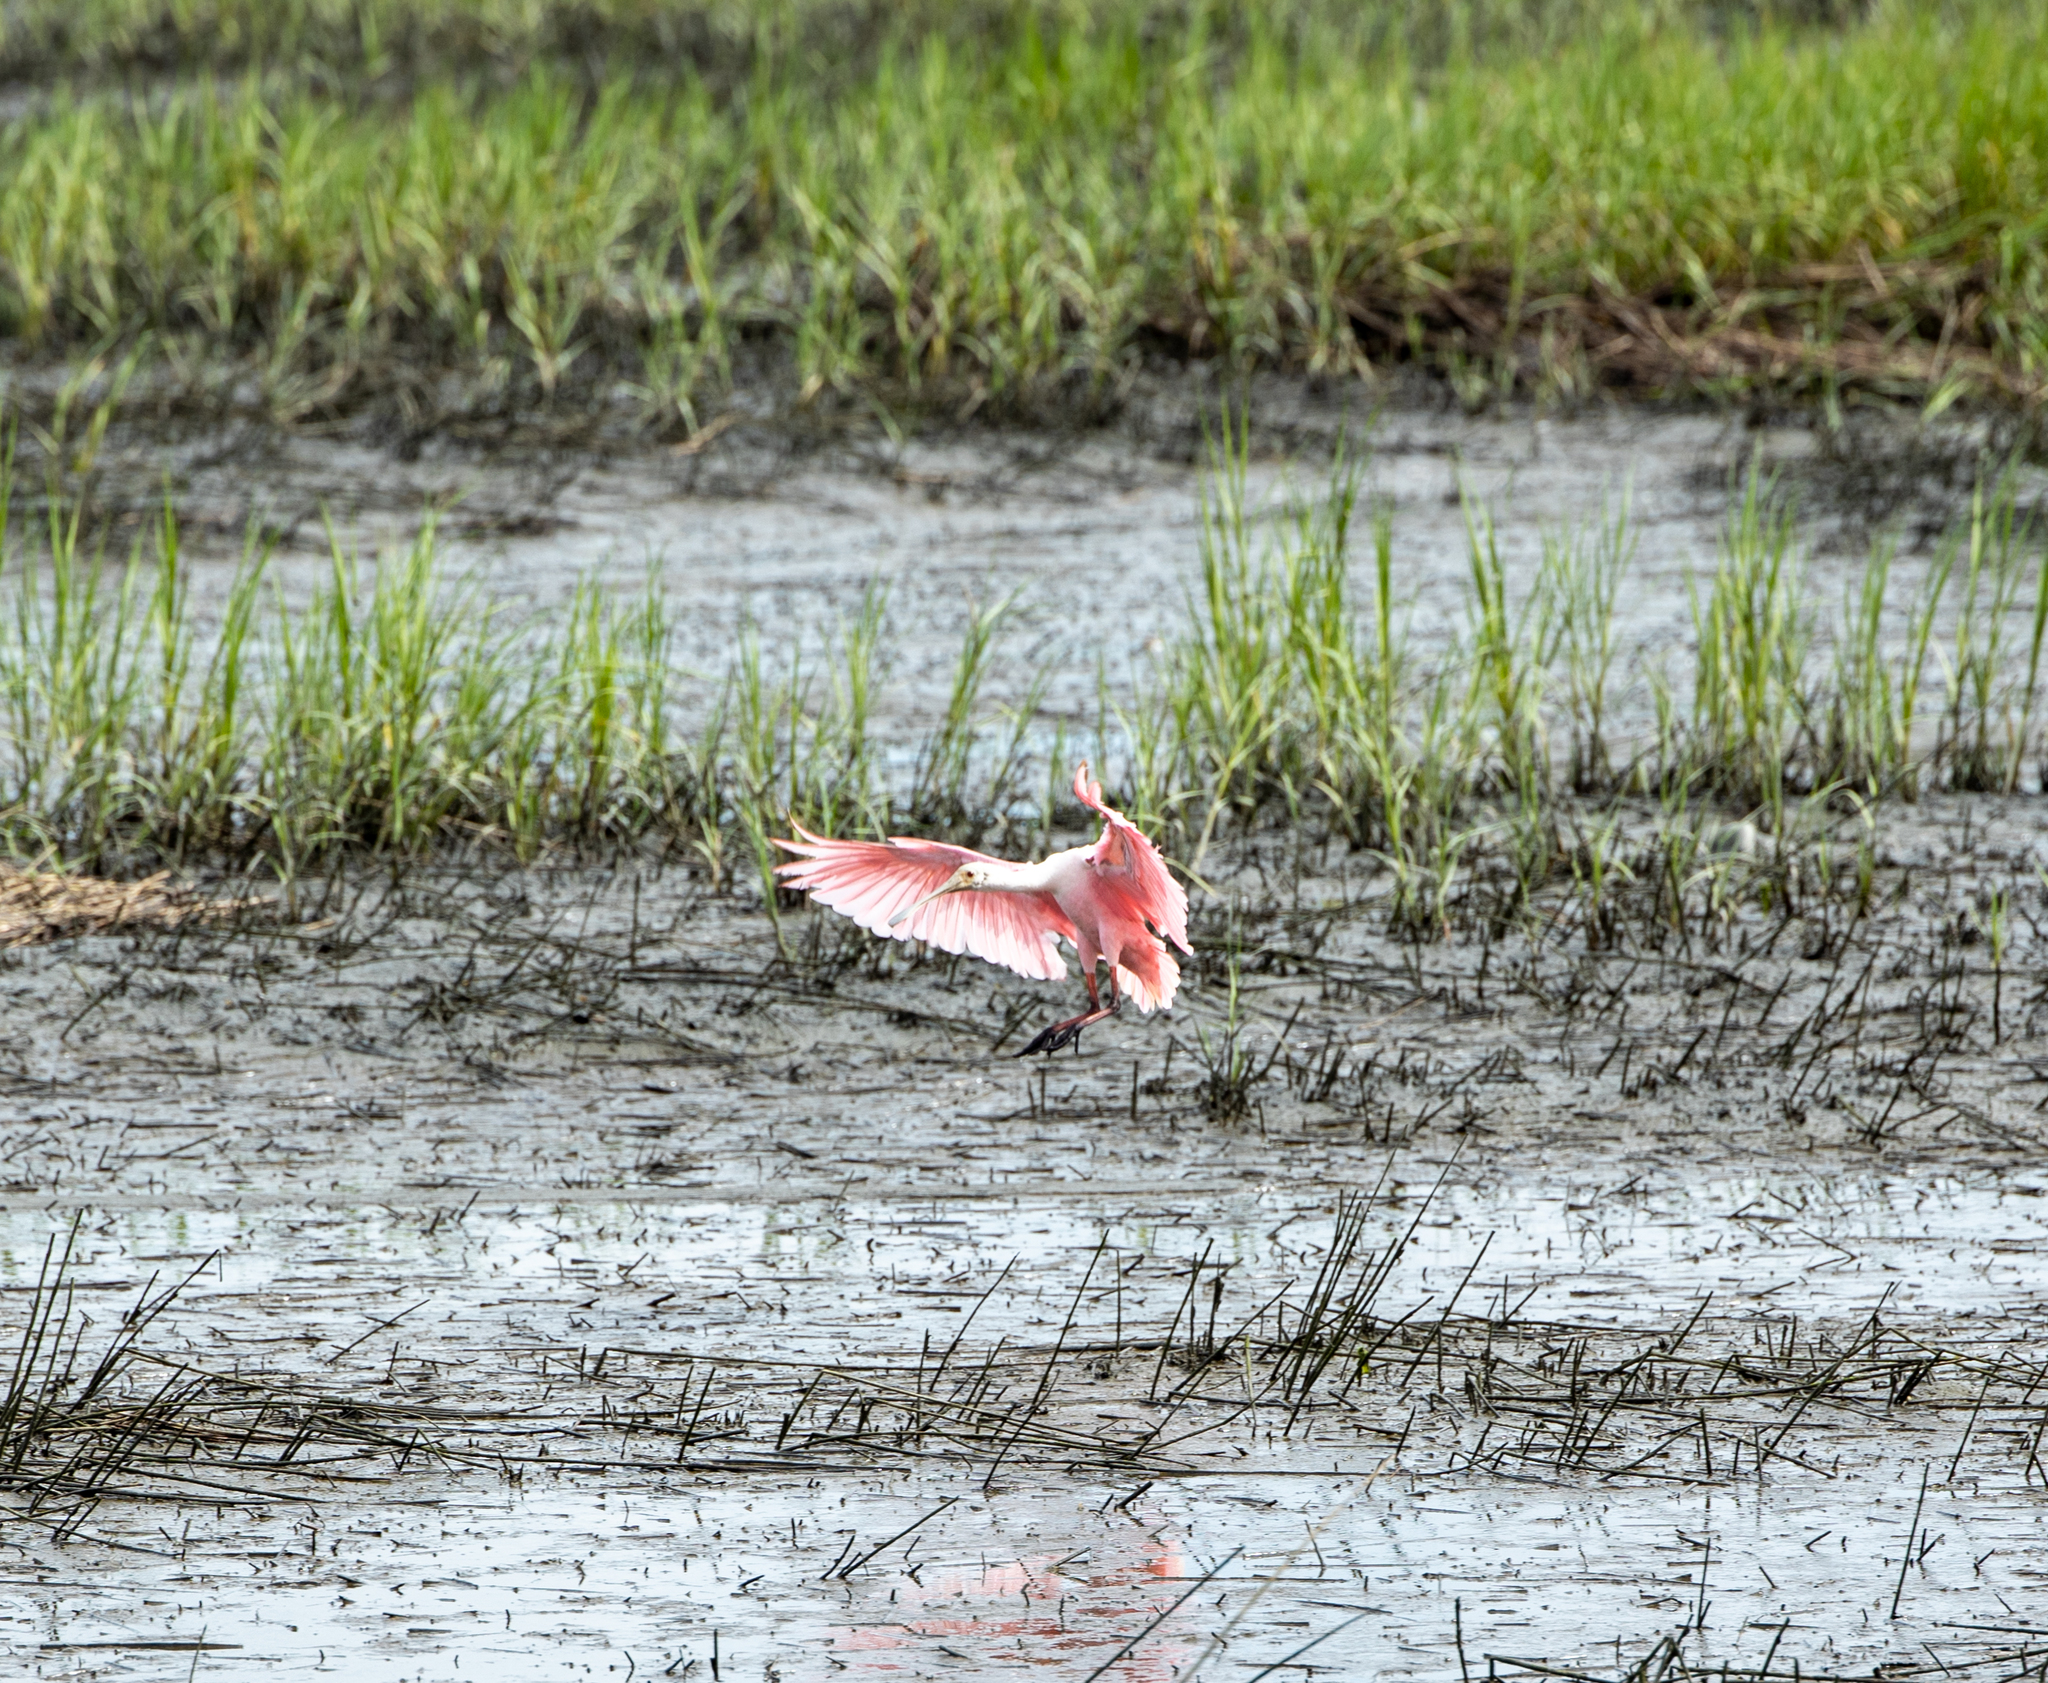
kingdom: Animalia
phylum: Chordata
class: Aves
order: Pelecaniformes
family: Threskiornithidae
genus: Platalea
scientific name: Platalea ajaja
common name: Roseate spoonbill
